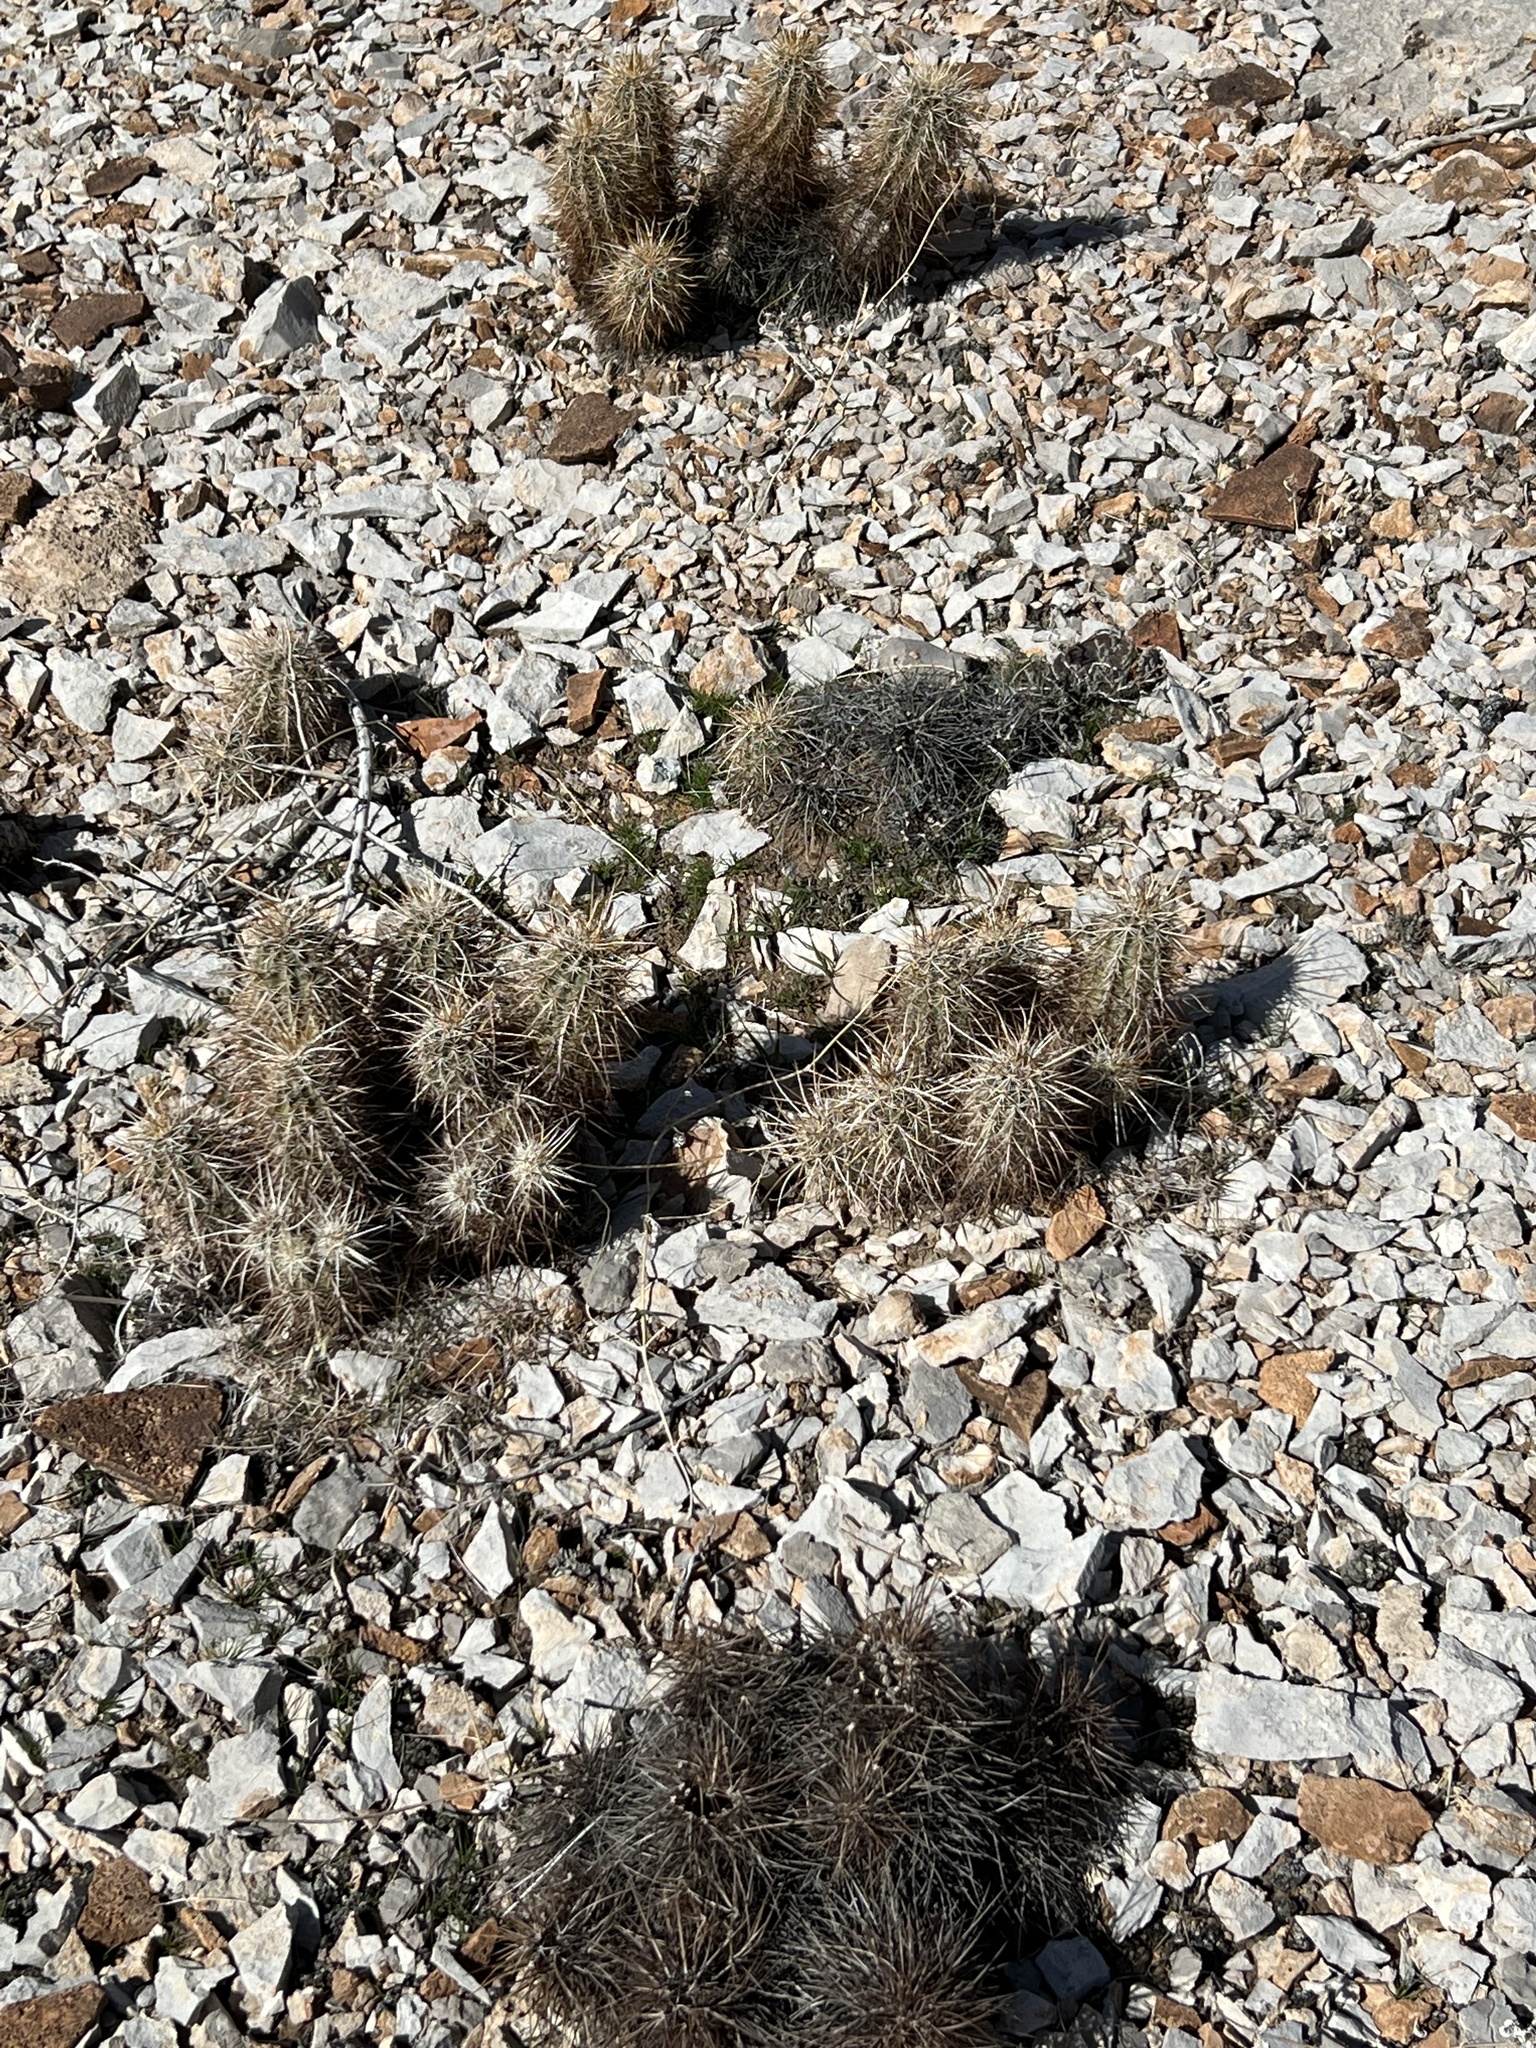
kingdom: Plantae
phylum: Tracheophyta
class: Magnoliopsida
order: Caryophyllales
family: Cactaceae
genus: Echinocereus
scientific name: Echinocereus engelmannii
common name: Engelmann's hedgehog cactus
